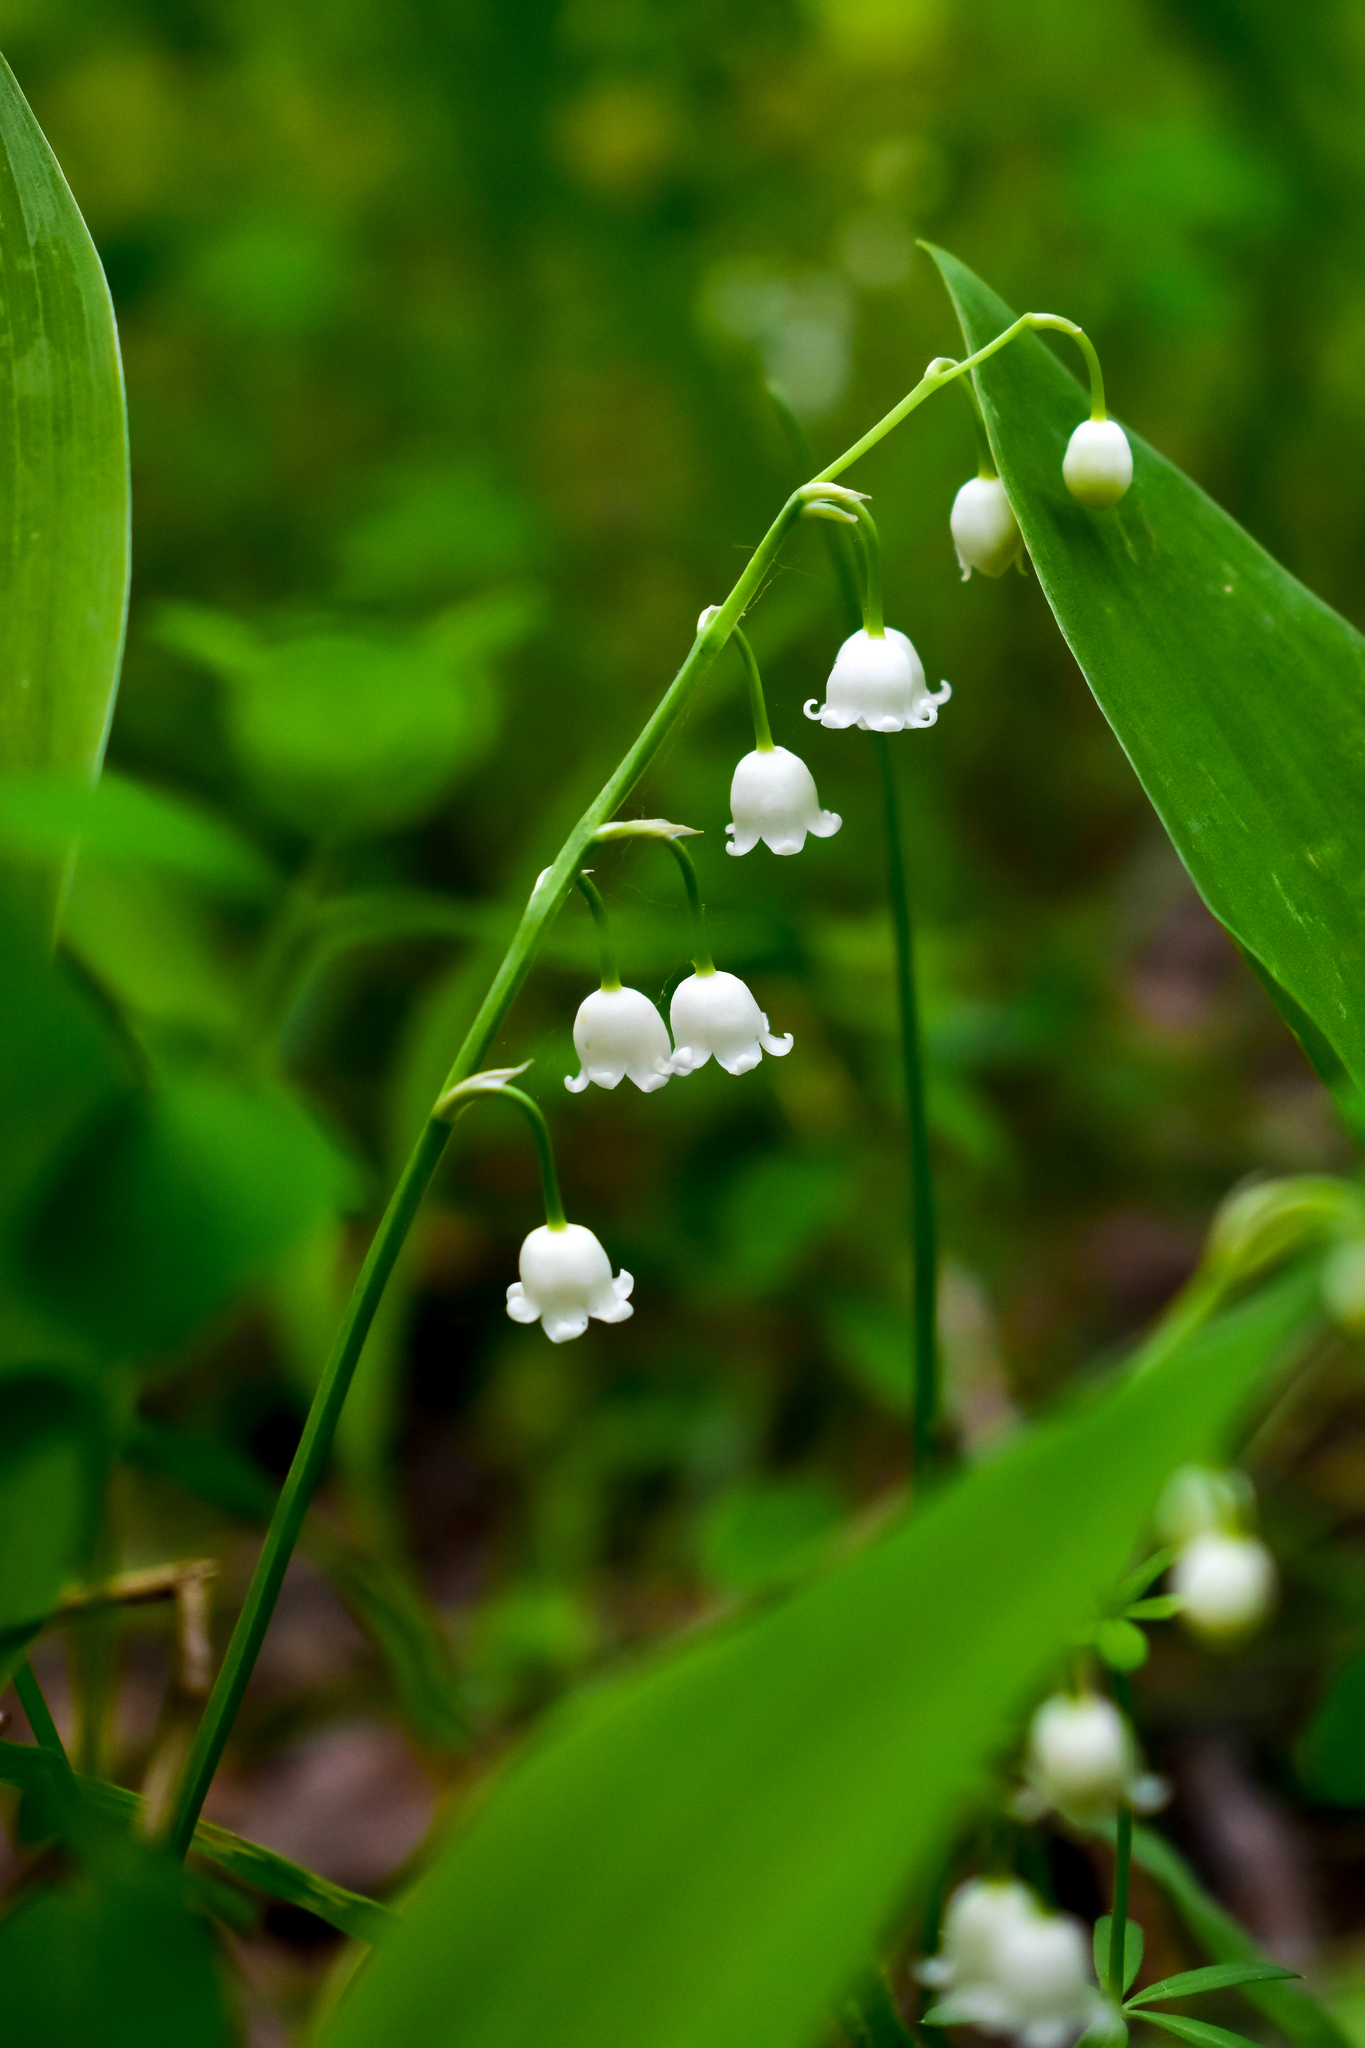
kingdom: Plantae
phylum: Tracheophyta
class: Liliopsida
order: Asparagales
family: Asparagaceae
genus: Convallaria
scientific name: Convallaria majalis
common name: Lily-of-the-valley
